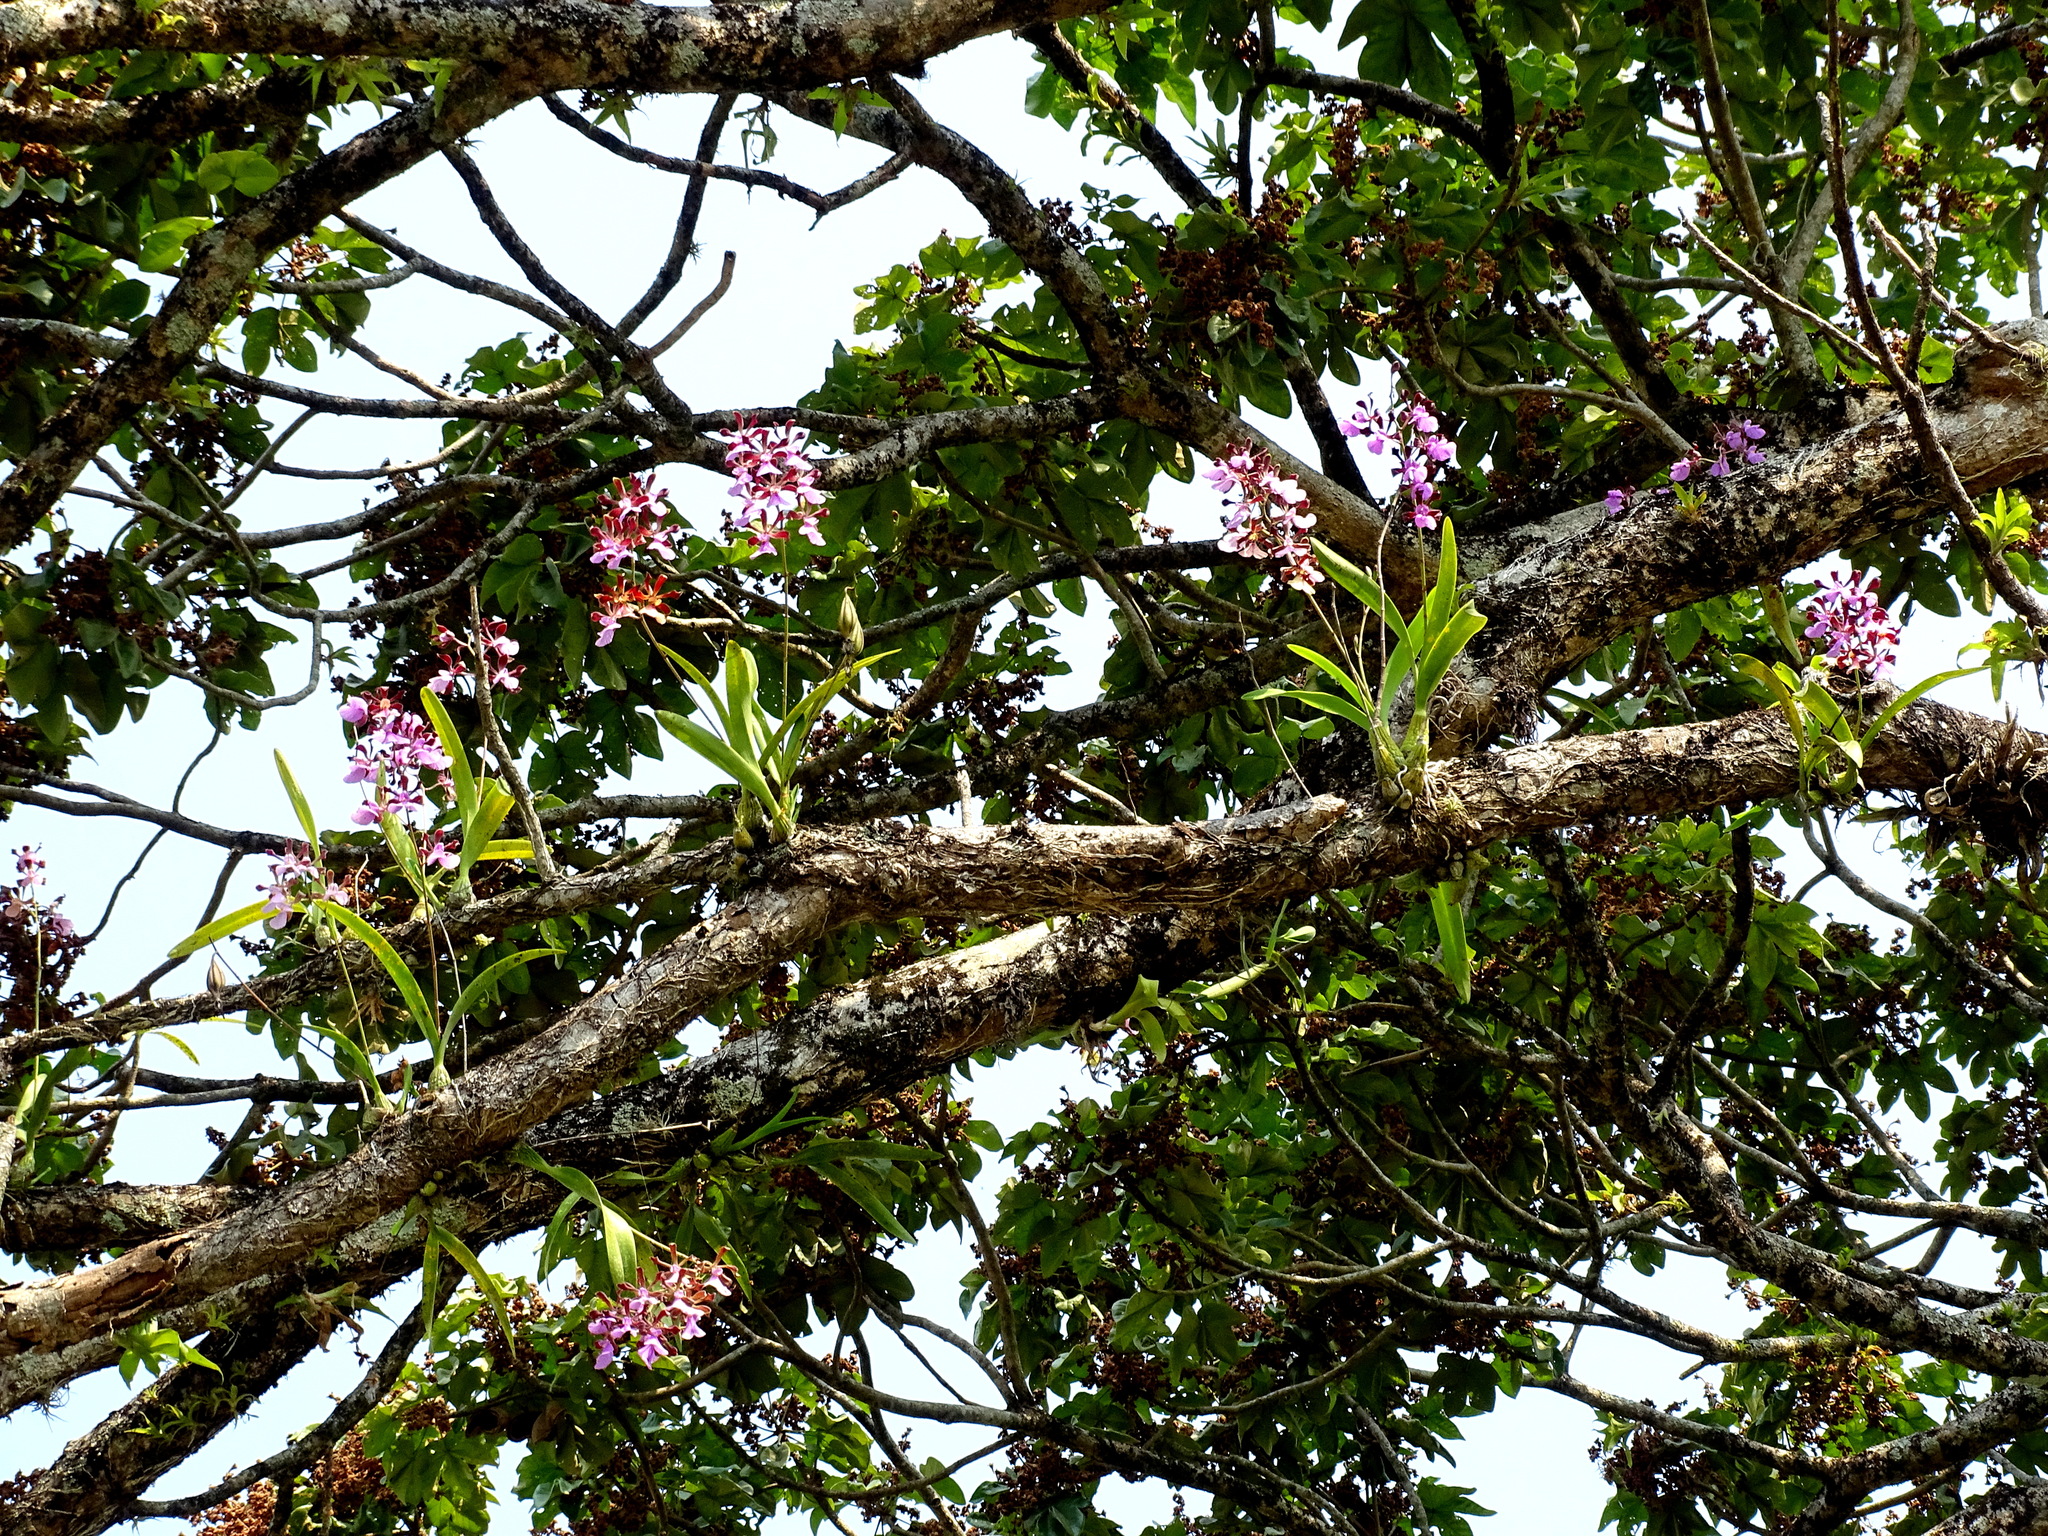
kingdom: Plantae
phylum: Tracheophyta
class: Liliopsida
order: Asparagales
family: Orchidaceae
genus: Encyclia
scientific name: Encyclia cordigera
